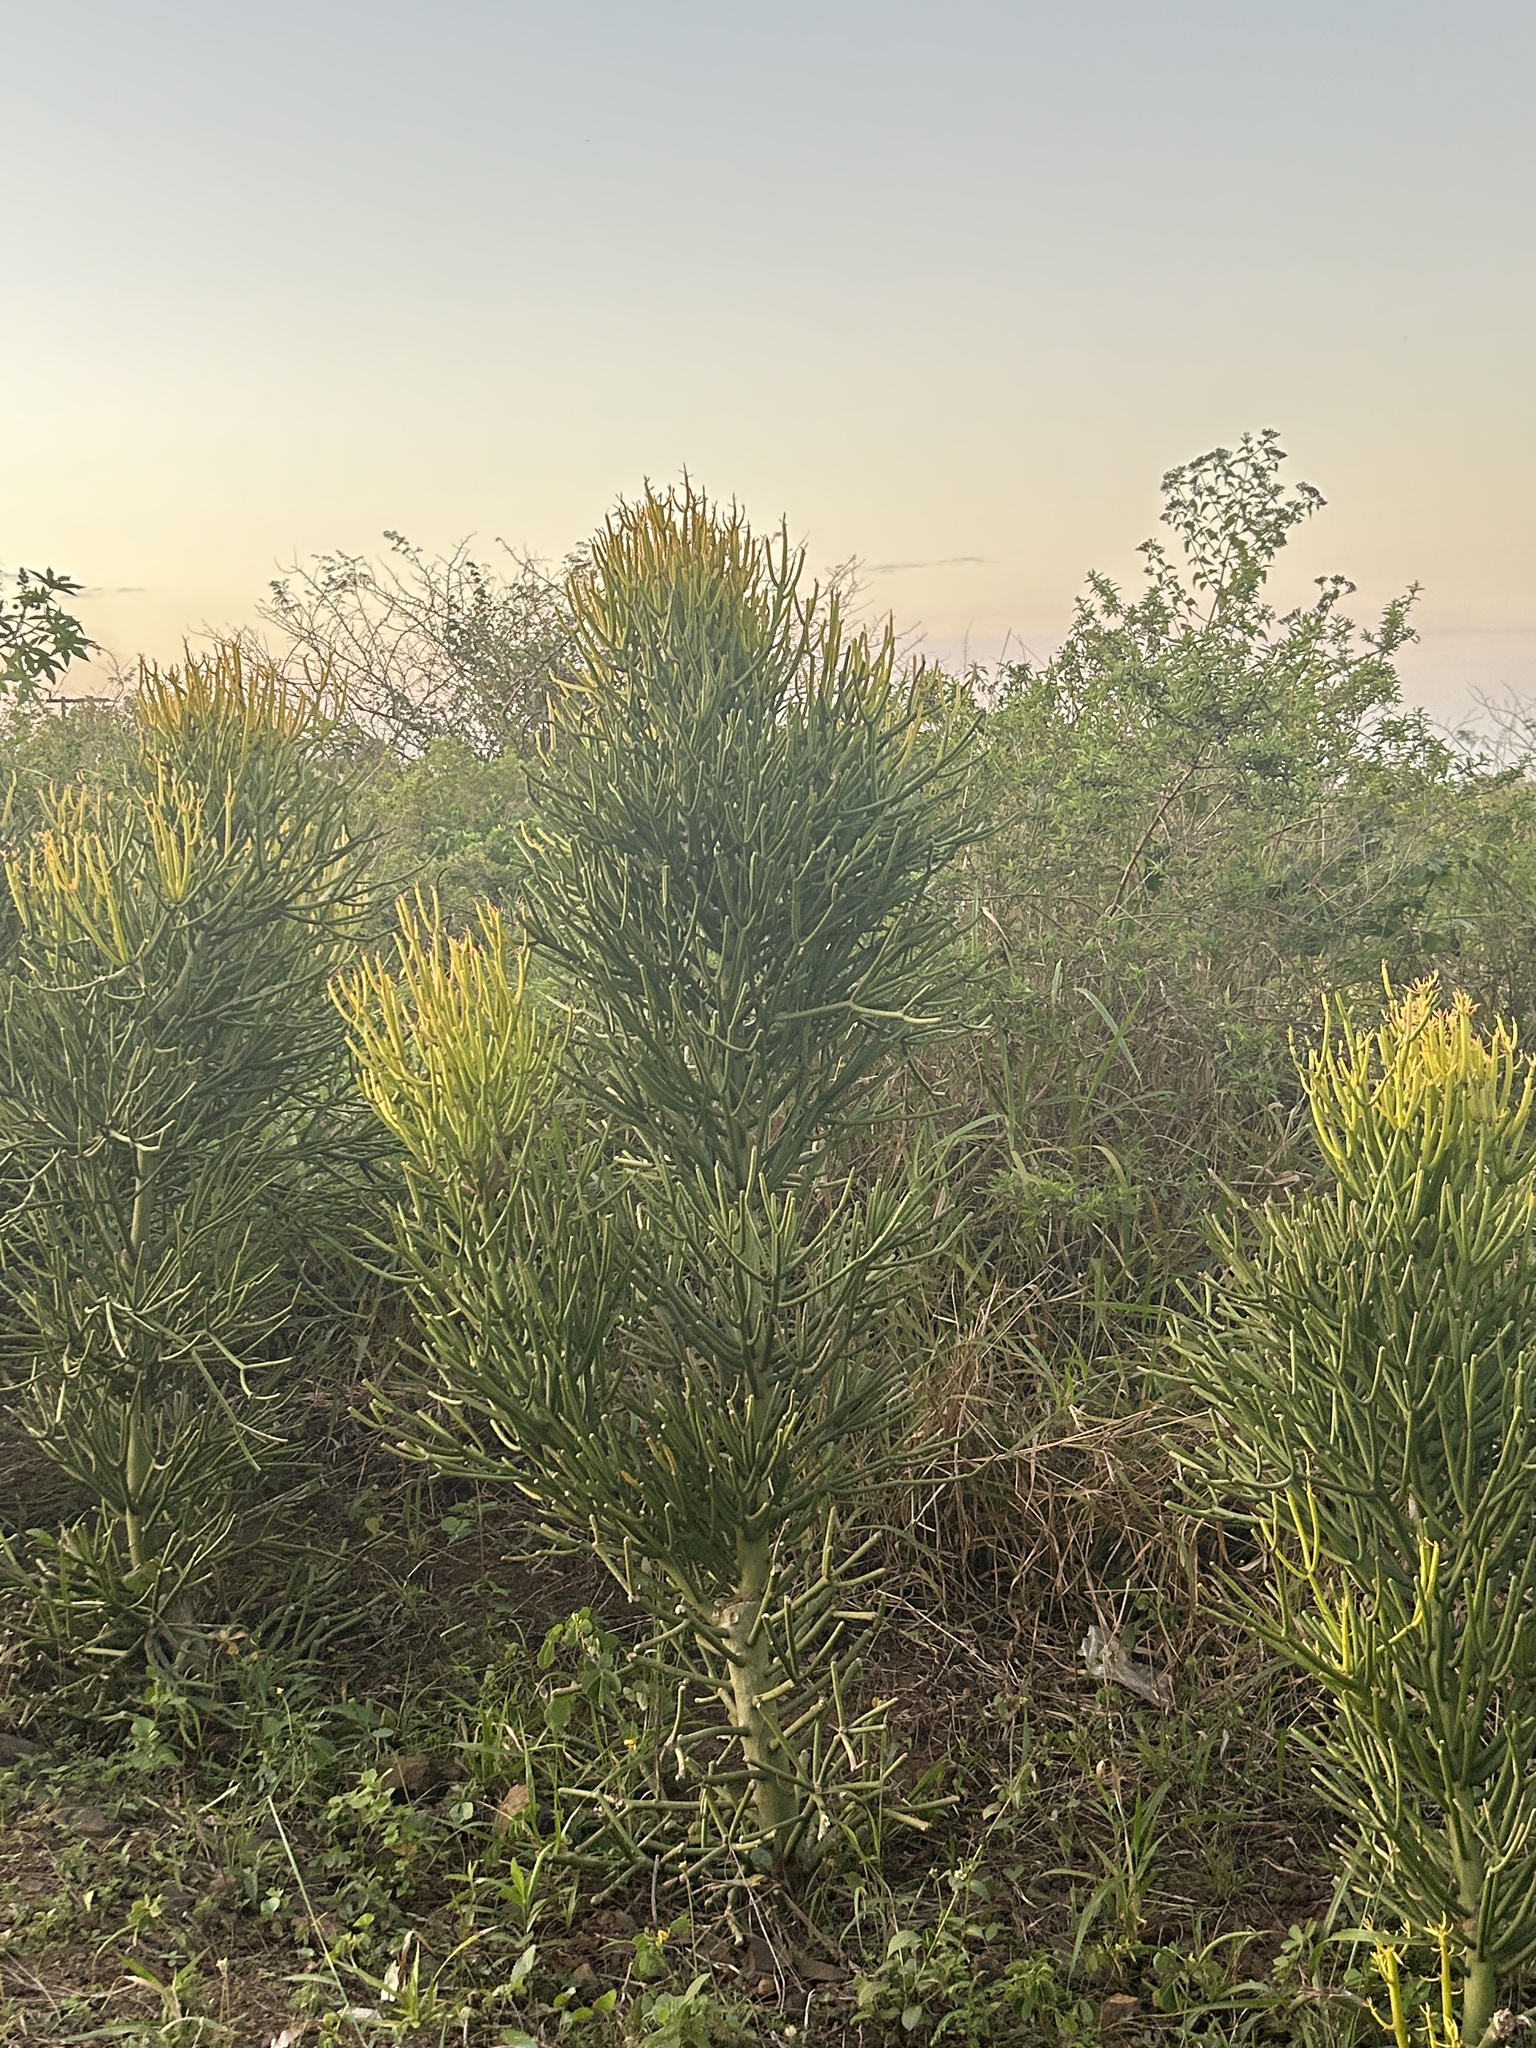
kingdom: Plantae
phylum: Tracheophyta
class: Magnoliopsida
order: Malpighiales
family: Euphorbiaceae
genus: Euphorbia
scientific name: Euphorbia tirucalli
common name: Indiantree spurge
